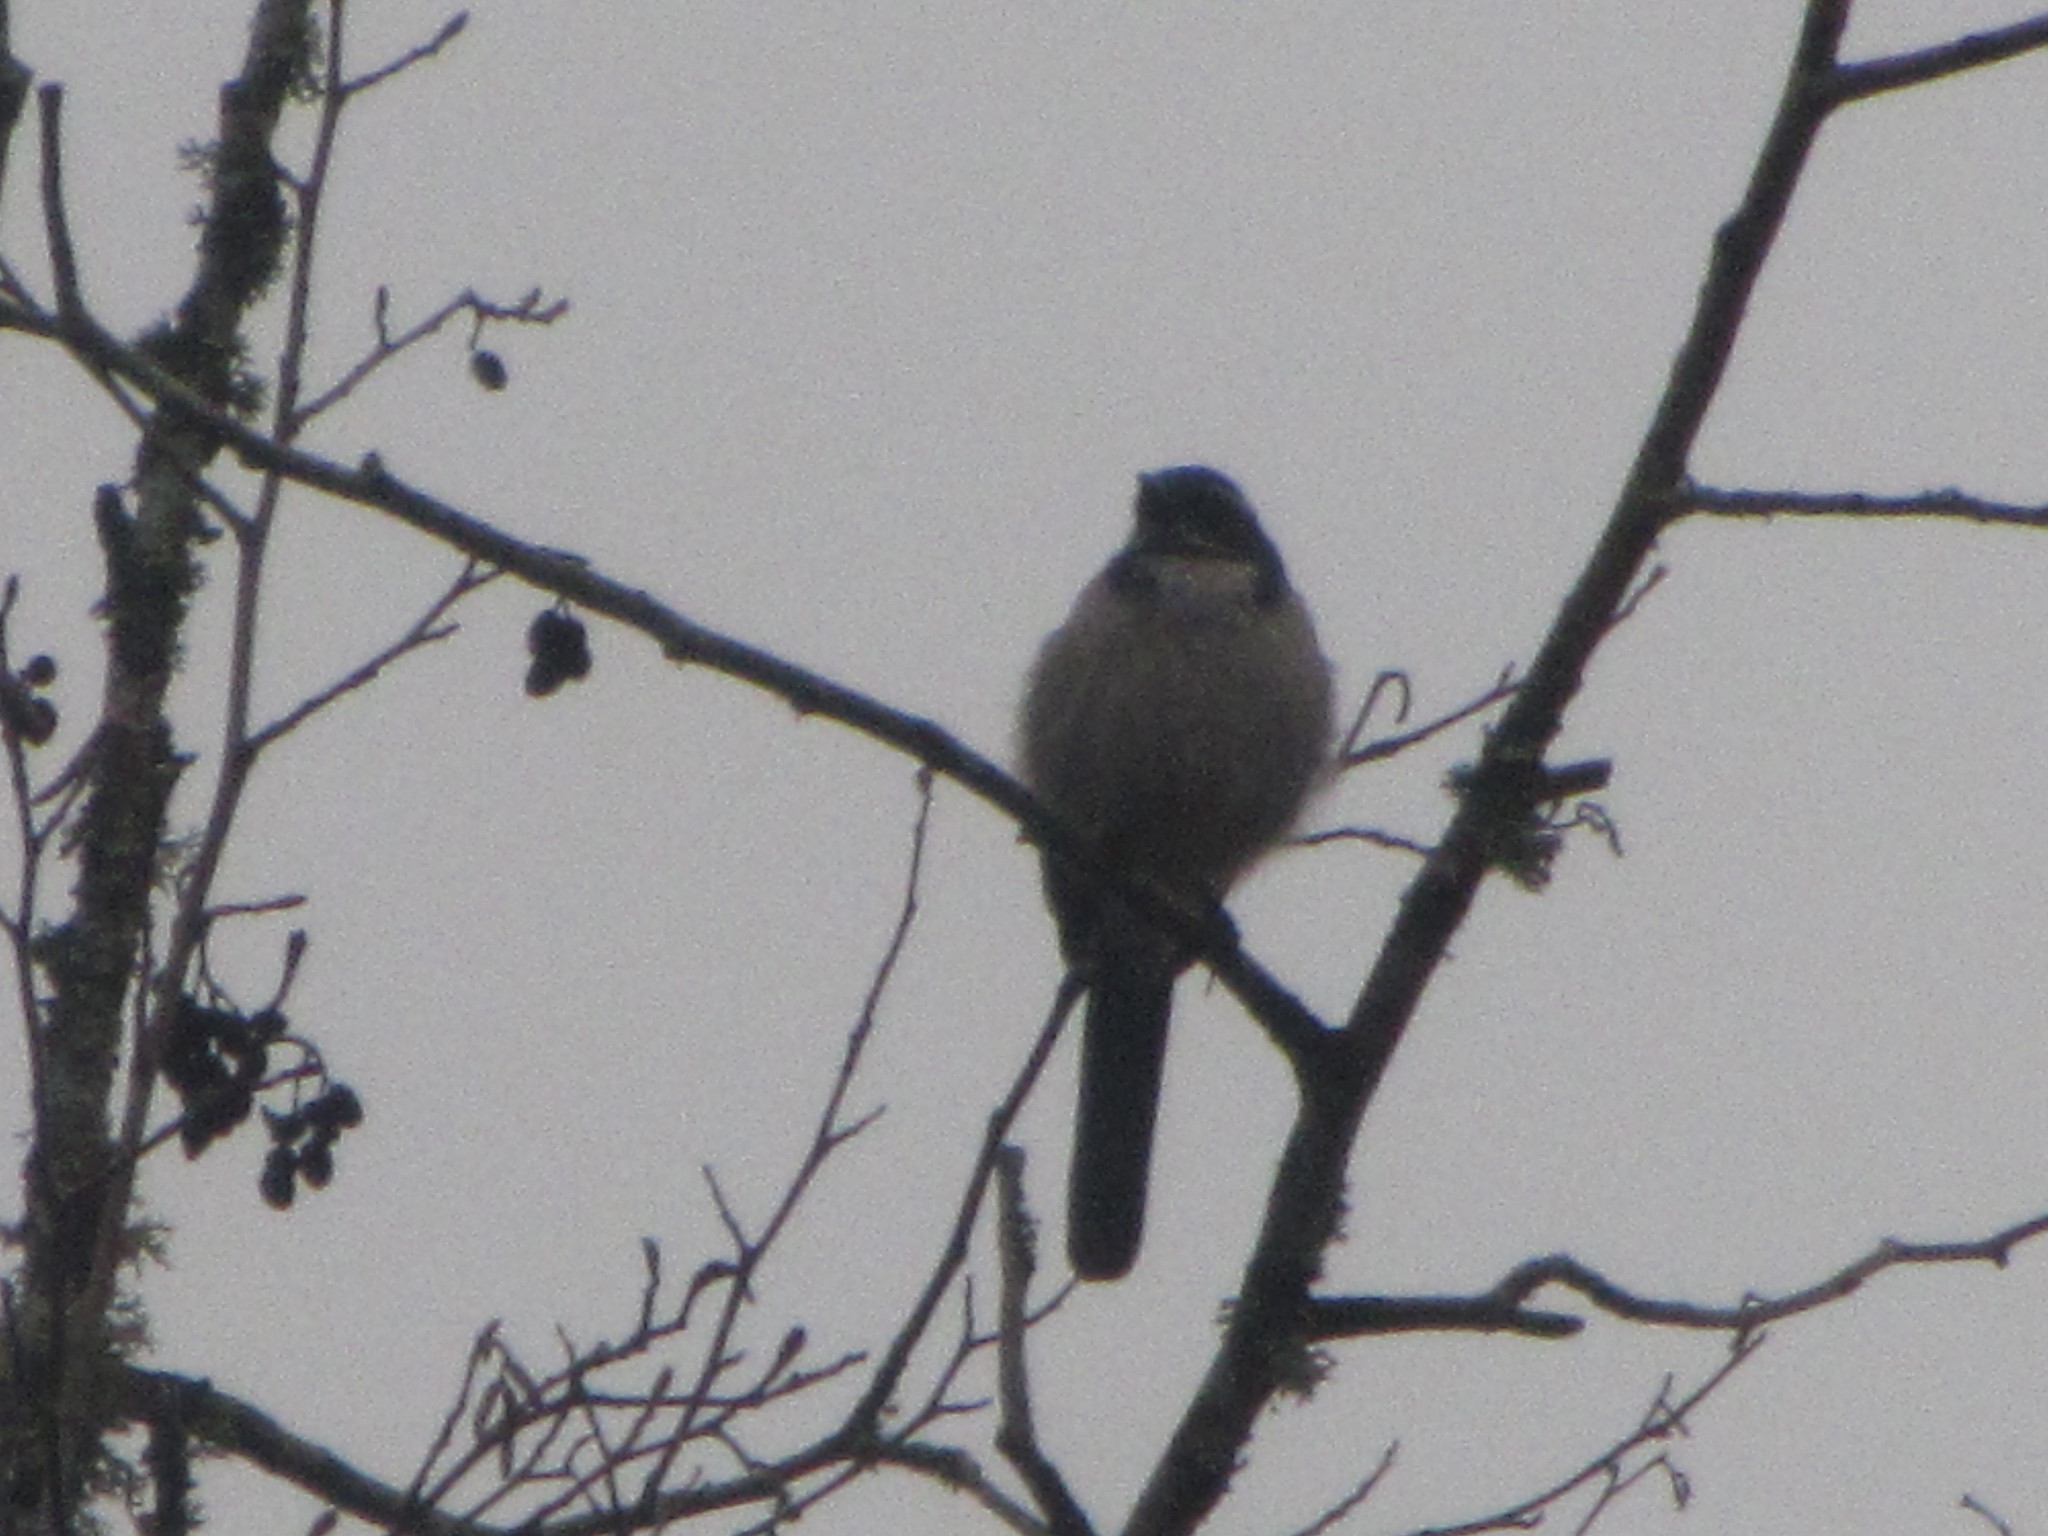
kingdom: Animalia
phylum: Chordata
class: Aves
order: Passeriformes
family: Corvidae
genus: Aphelocoma
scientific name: Aphelocoma californica
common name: California scrub-jay
